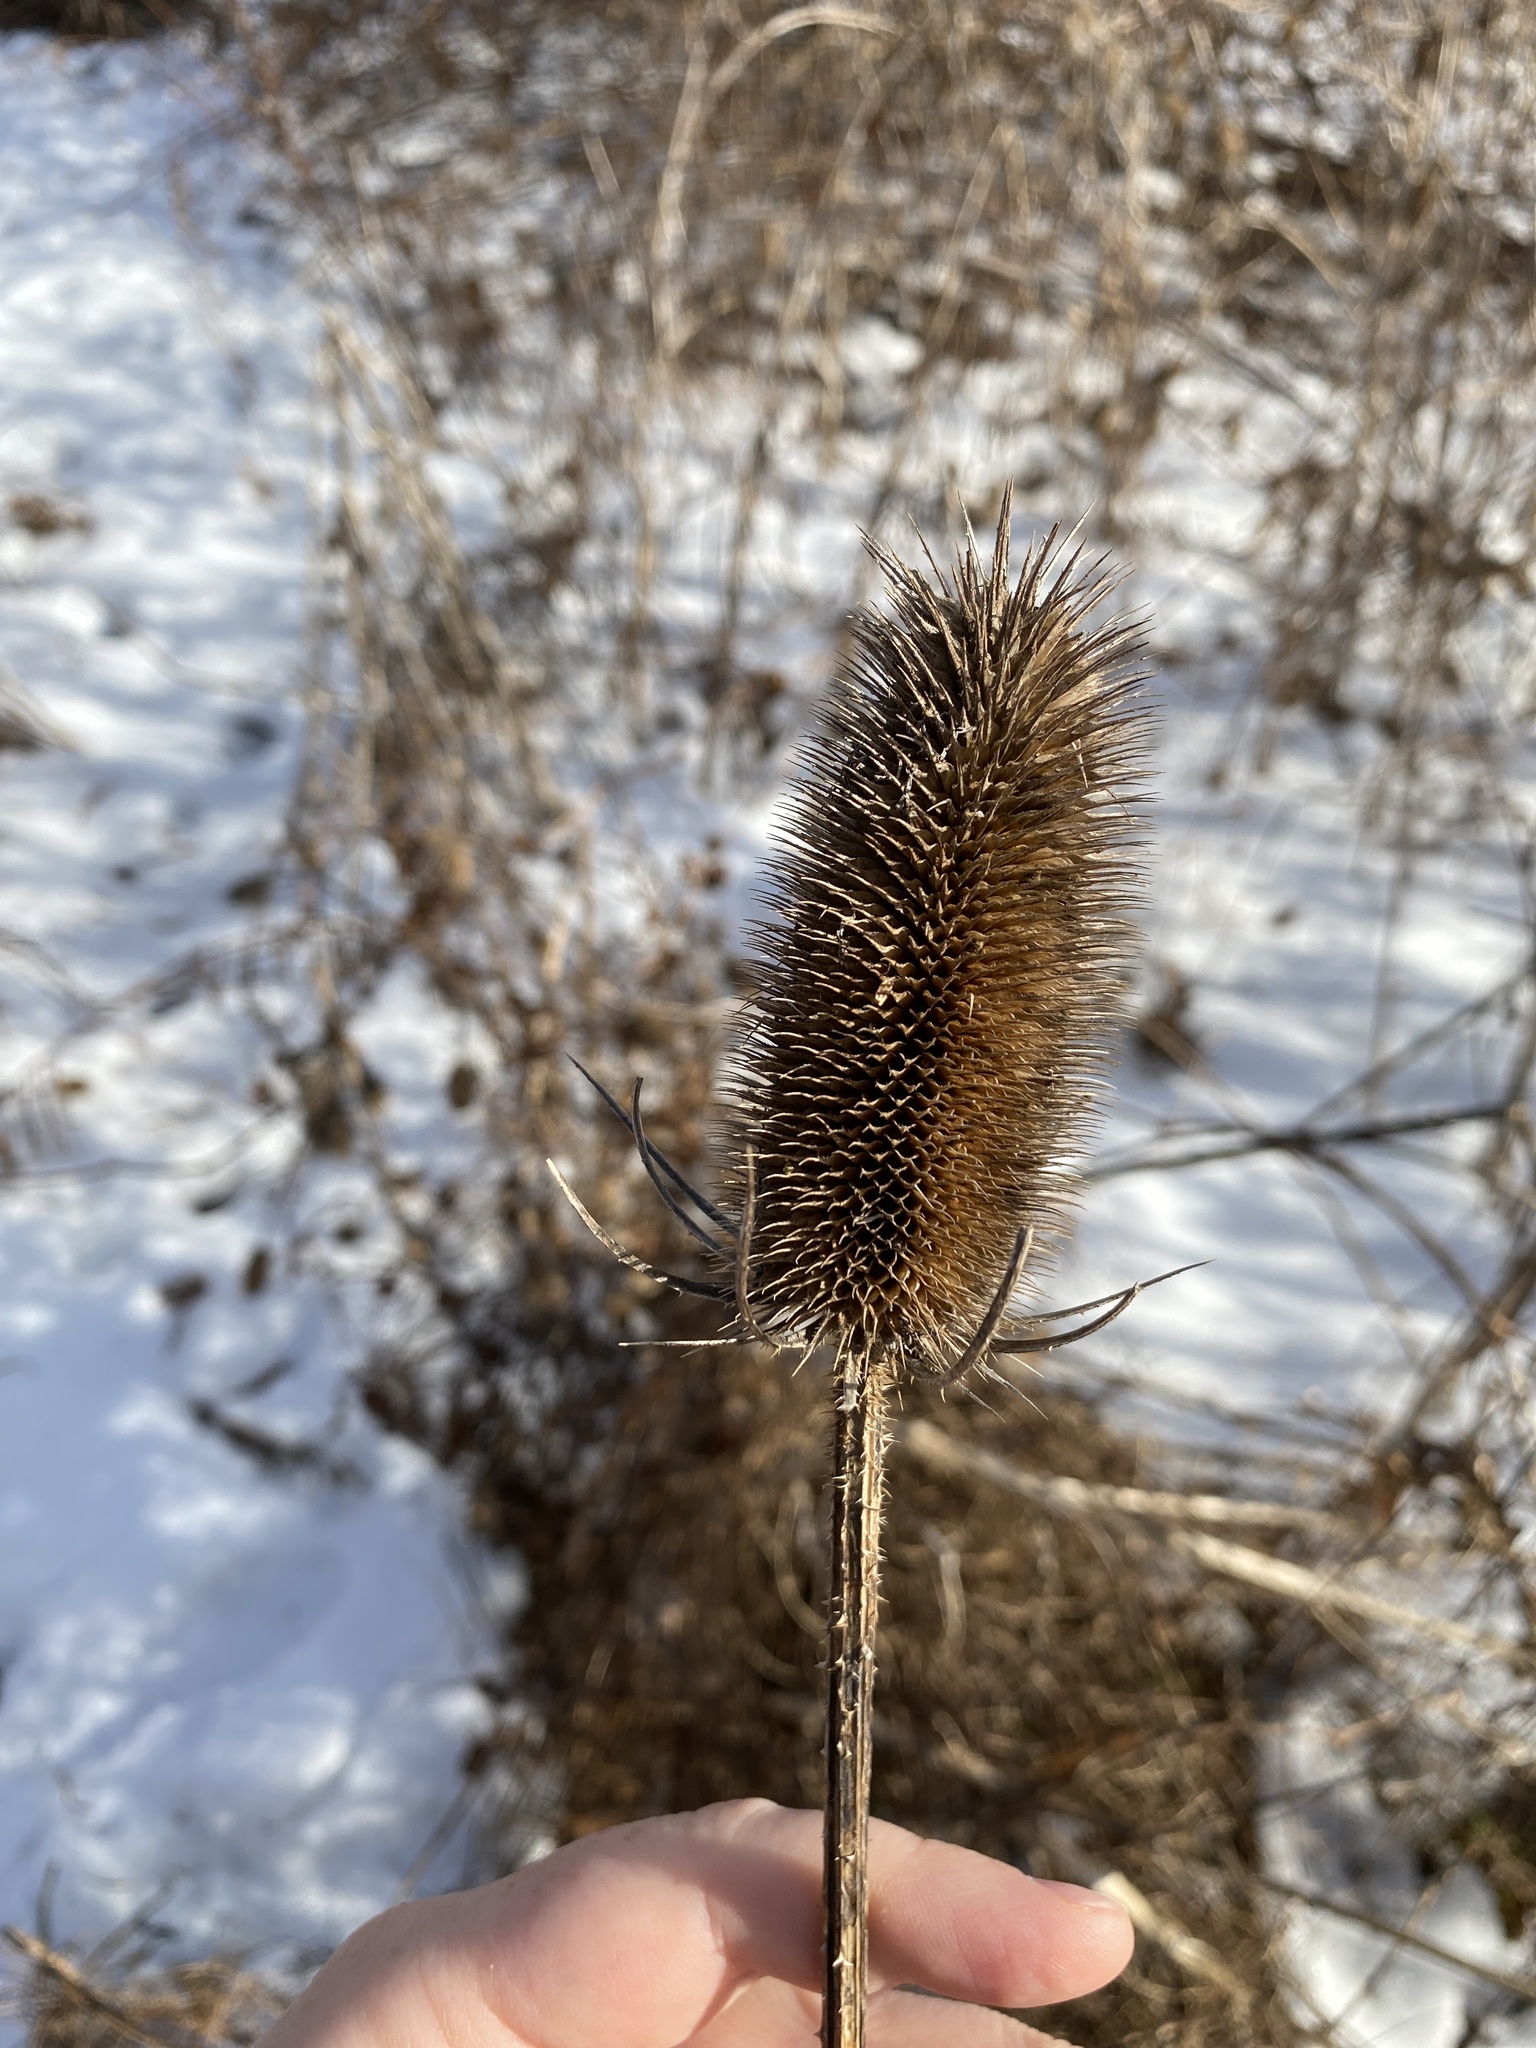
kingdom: Plantae
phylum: Tracheophyta
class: Magnoliopsida
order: Dipsacales
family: Caprifoliaceae
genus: Dipsacus
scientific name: Dipsacus fullonum
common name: Teasel
